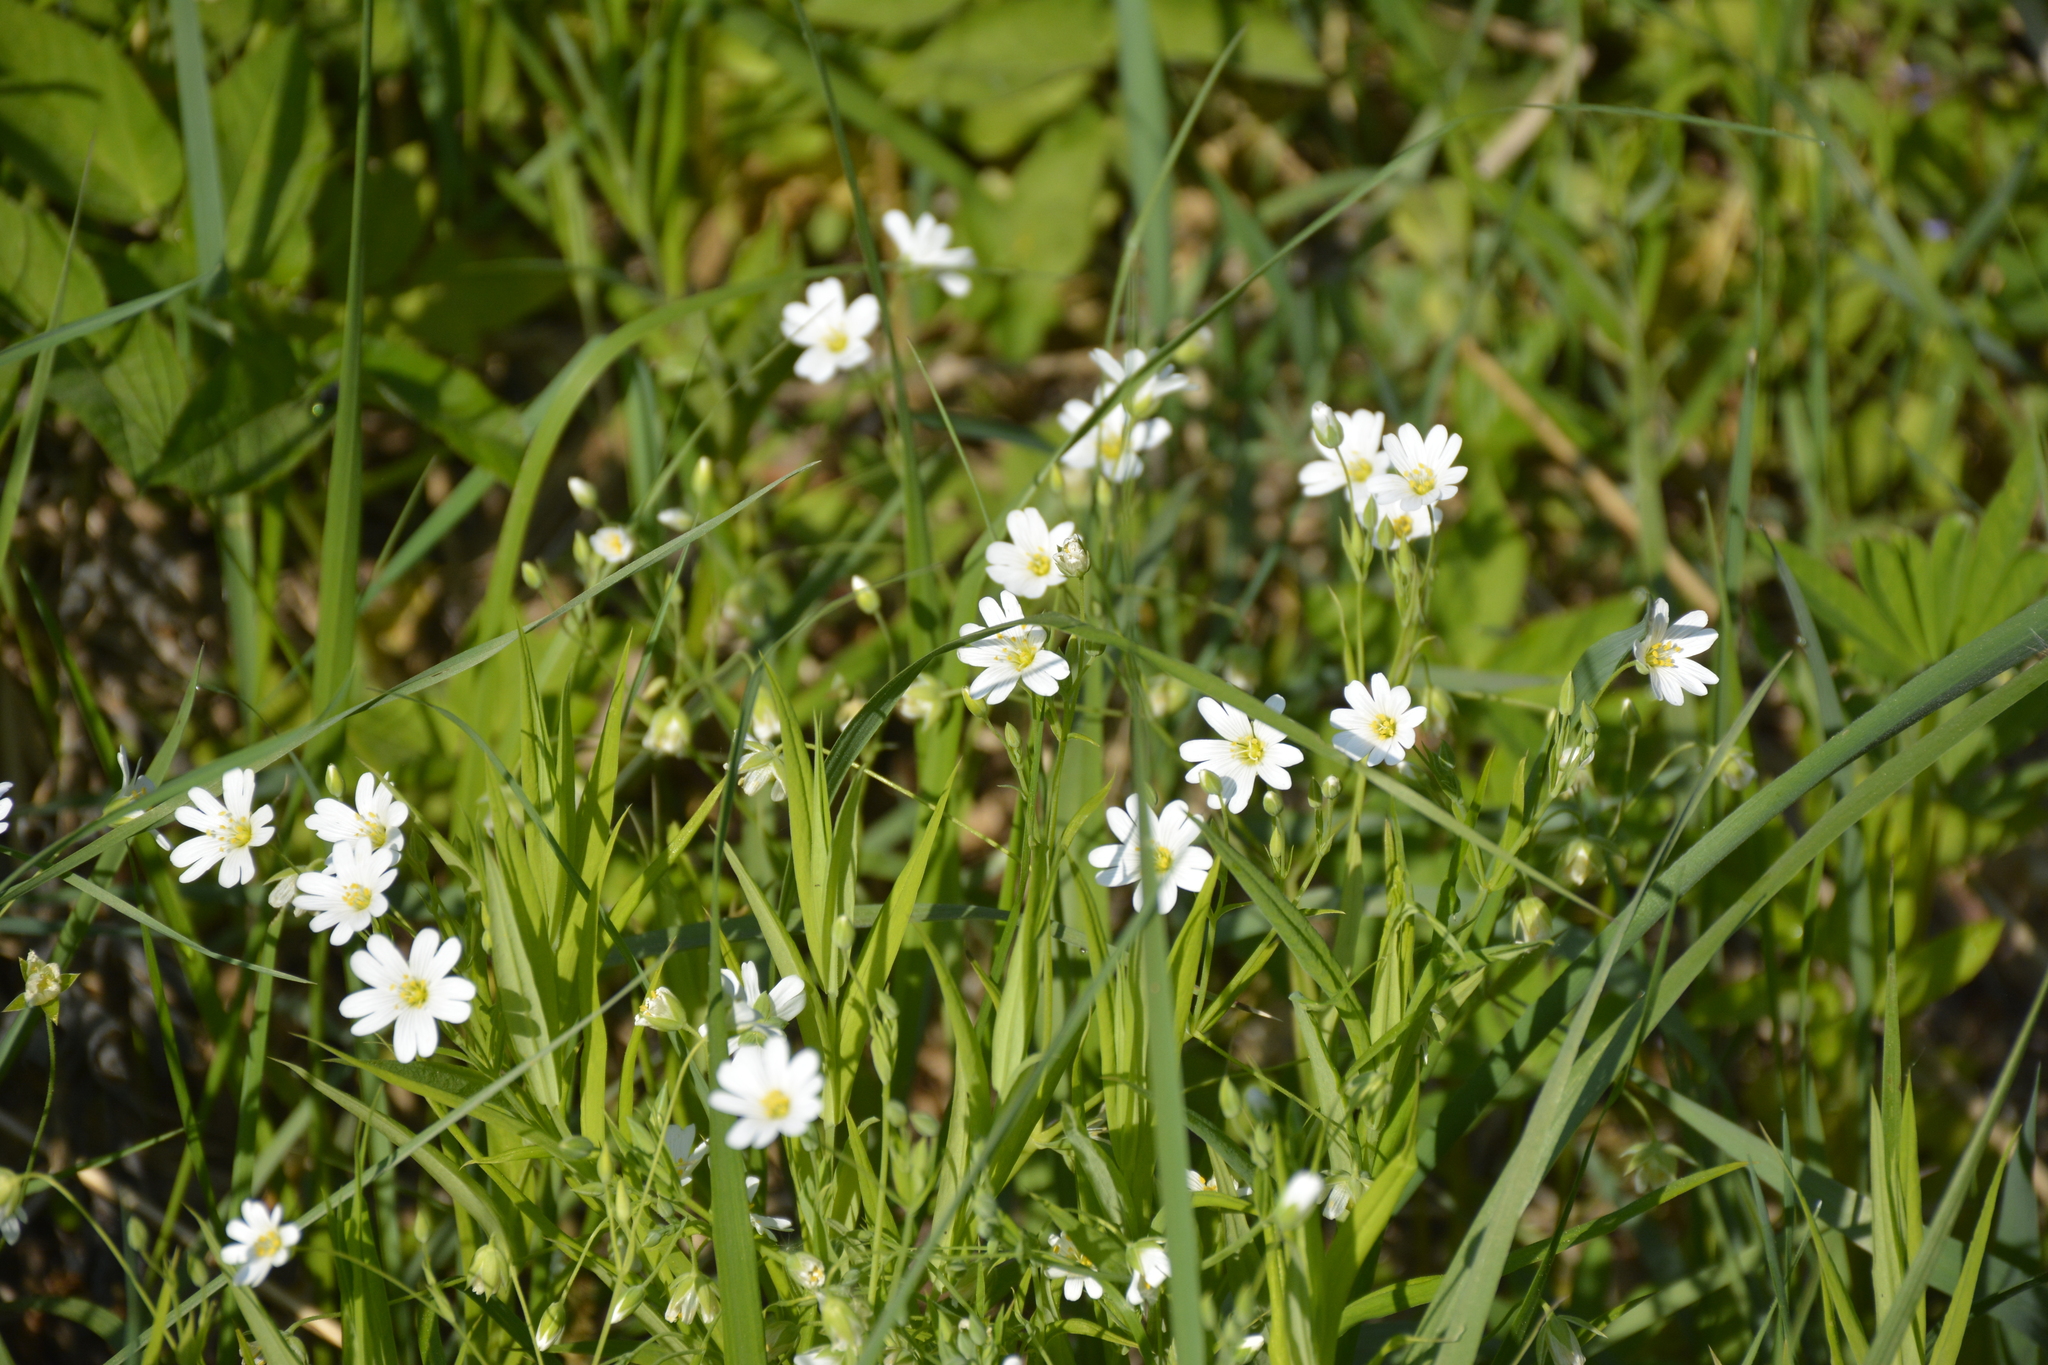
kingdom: Plantae
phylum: Tracheophyta
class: Magnoliopsida
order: Caryophyllales
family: Caryophyllaceae
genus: Rabelera
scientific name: Rabelera holostea
